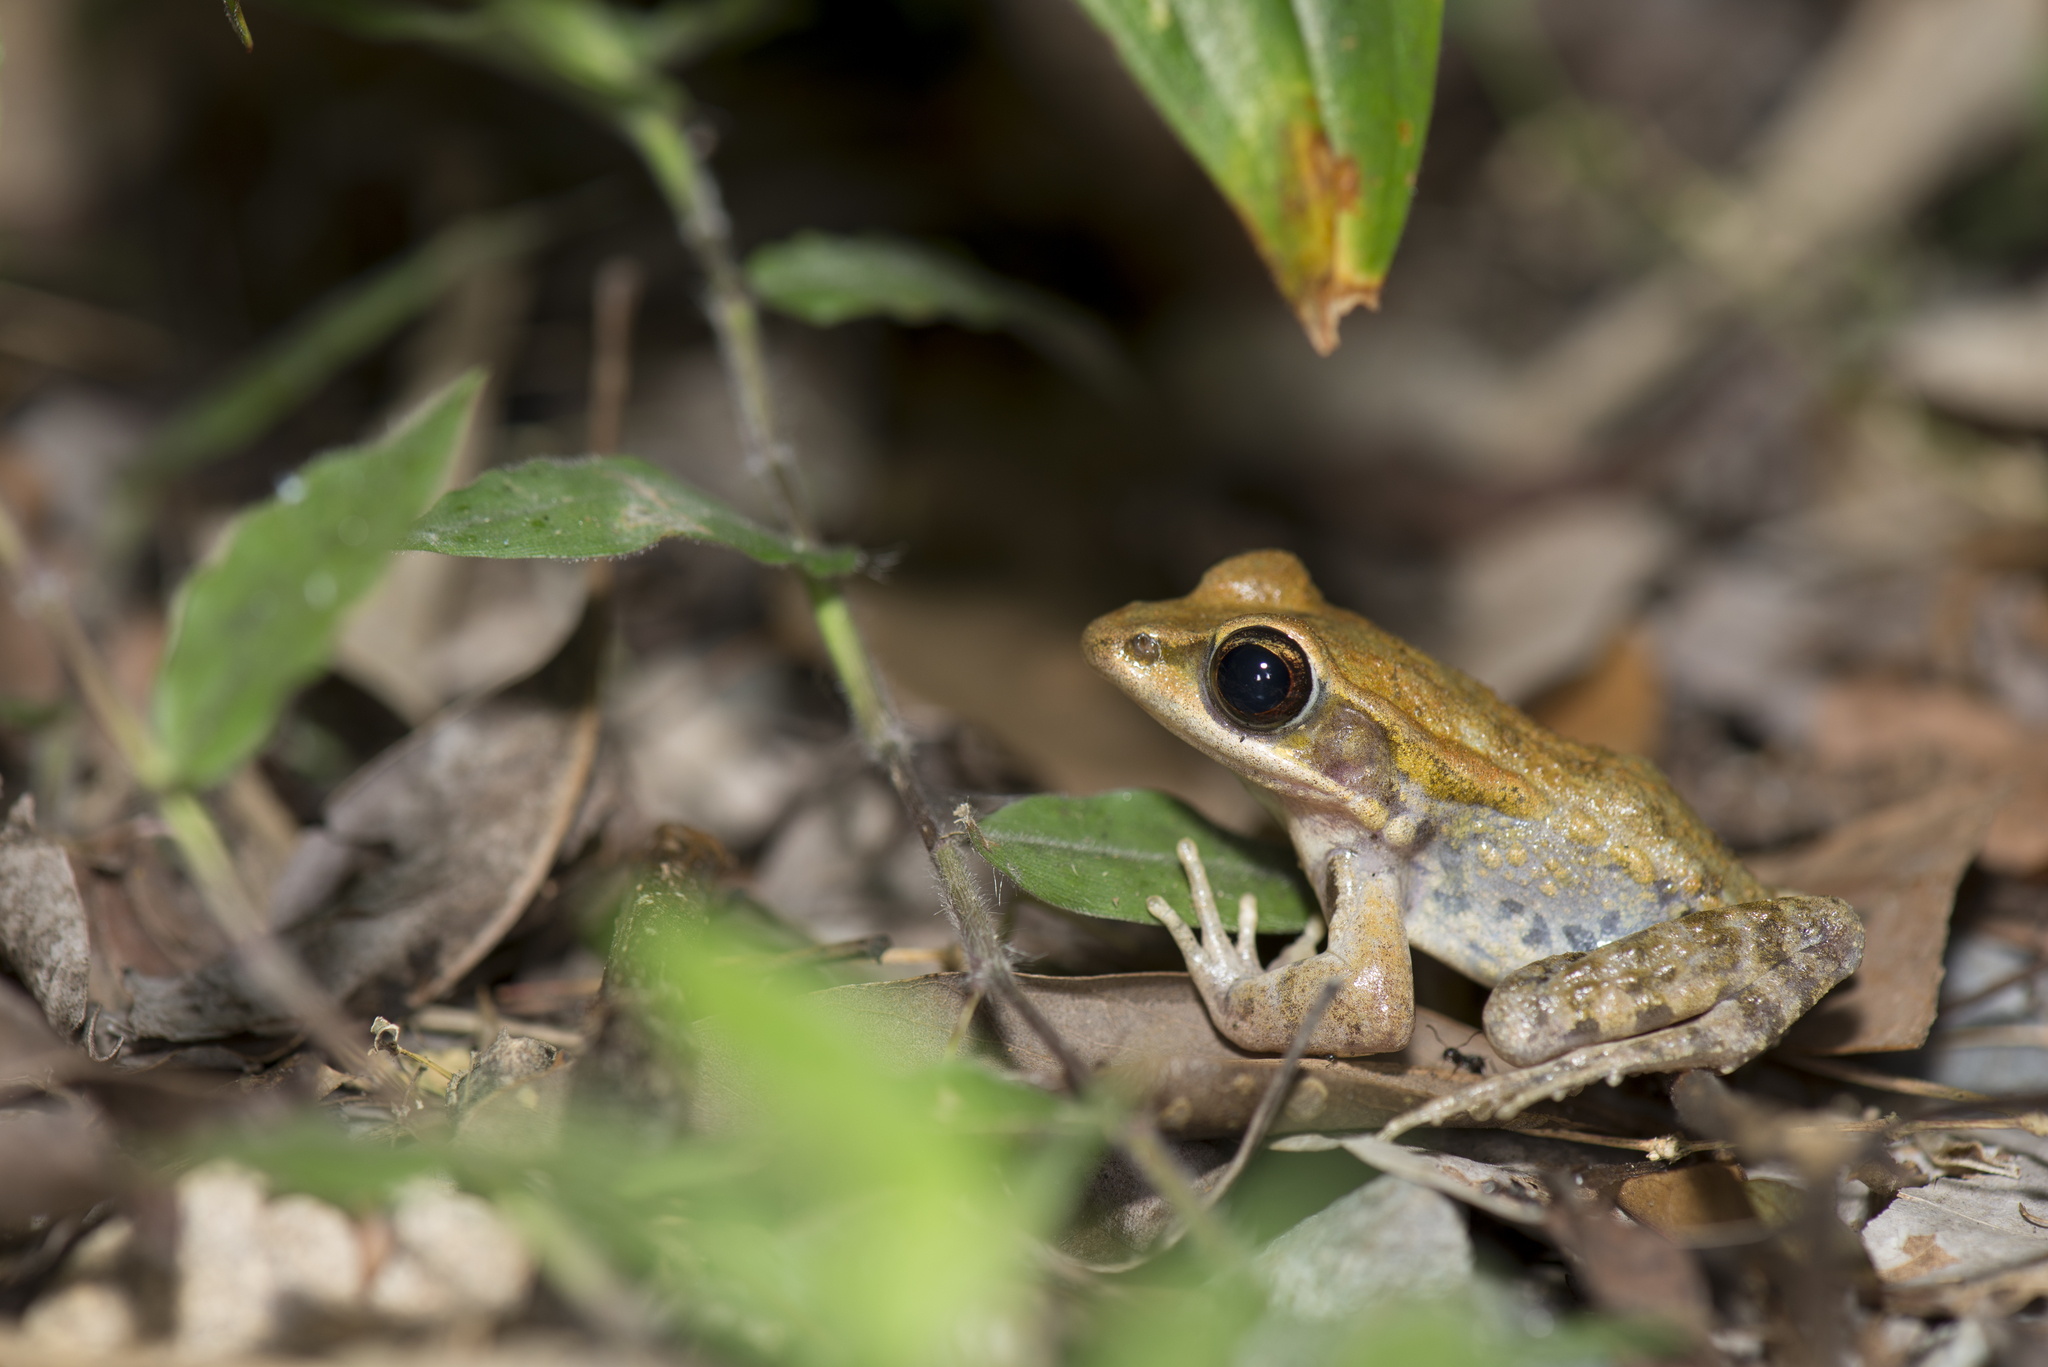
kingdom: Animalia
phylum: Chordata
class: Amphibia
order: Anura
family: Ranidae
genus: Hylarana
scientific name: Hylarana latouchii
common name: Broad-folded frog
